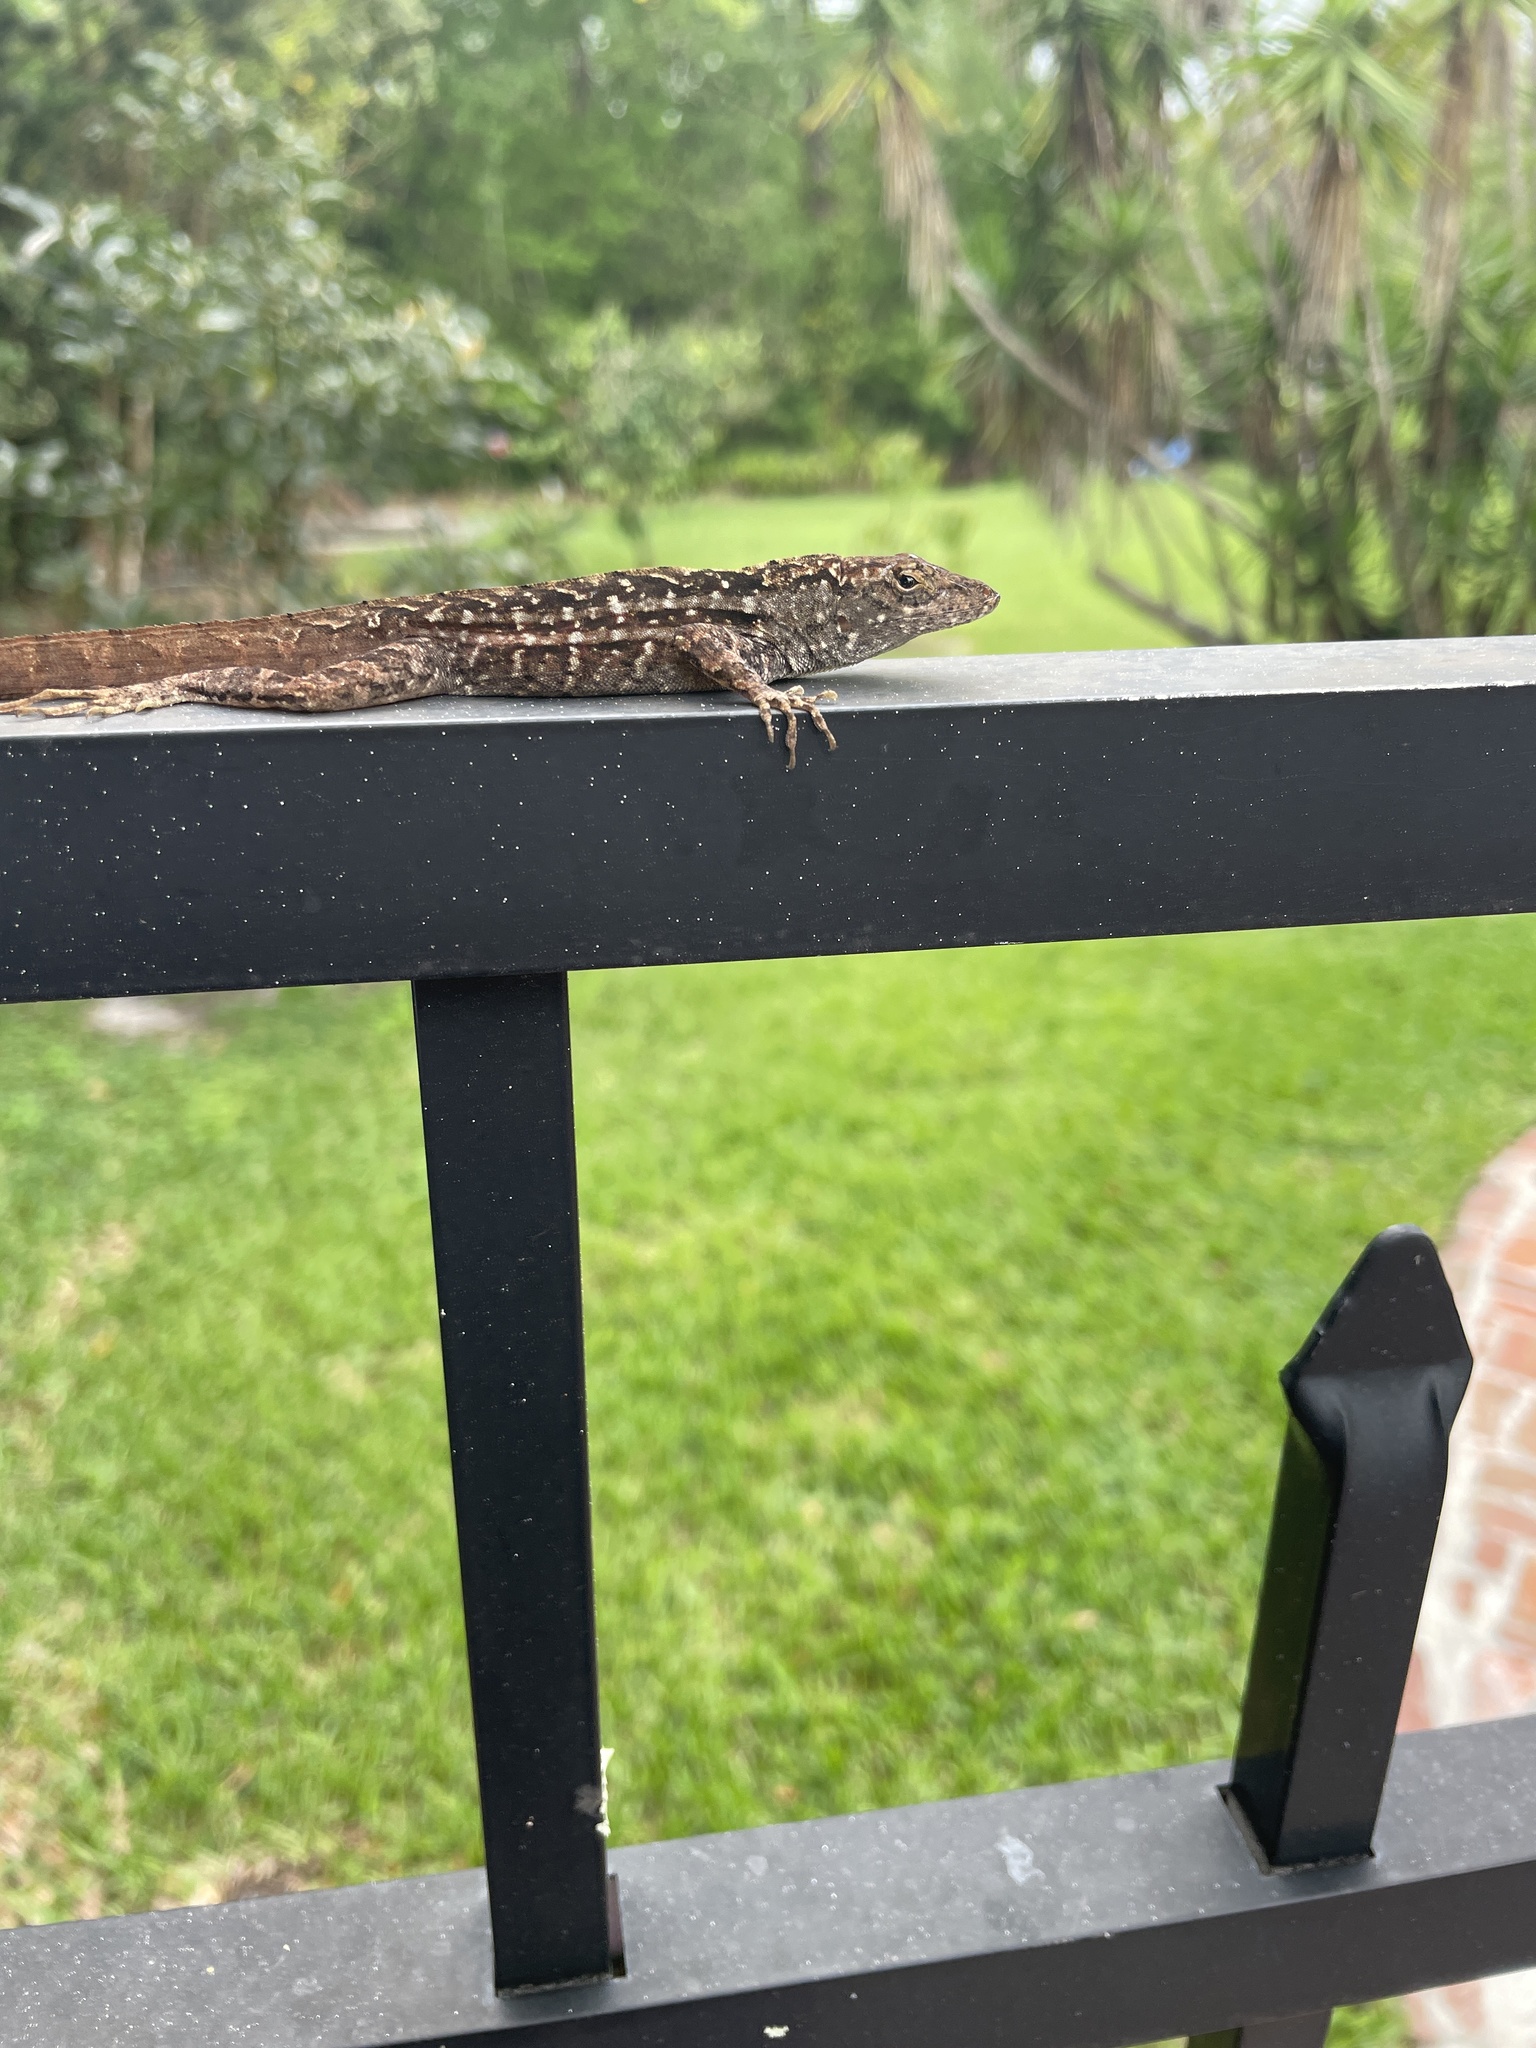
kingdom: Animalia
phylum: Chordata
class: Squamata
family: Dactyloidae
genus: Anolis
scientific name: Anolis sagrei
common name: Brown anole
